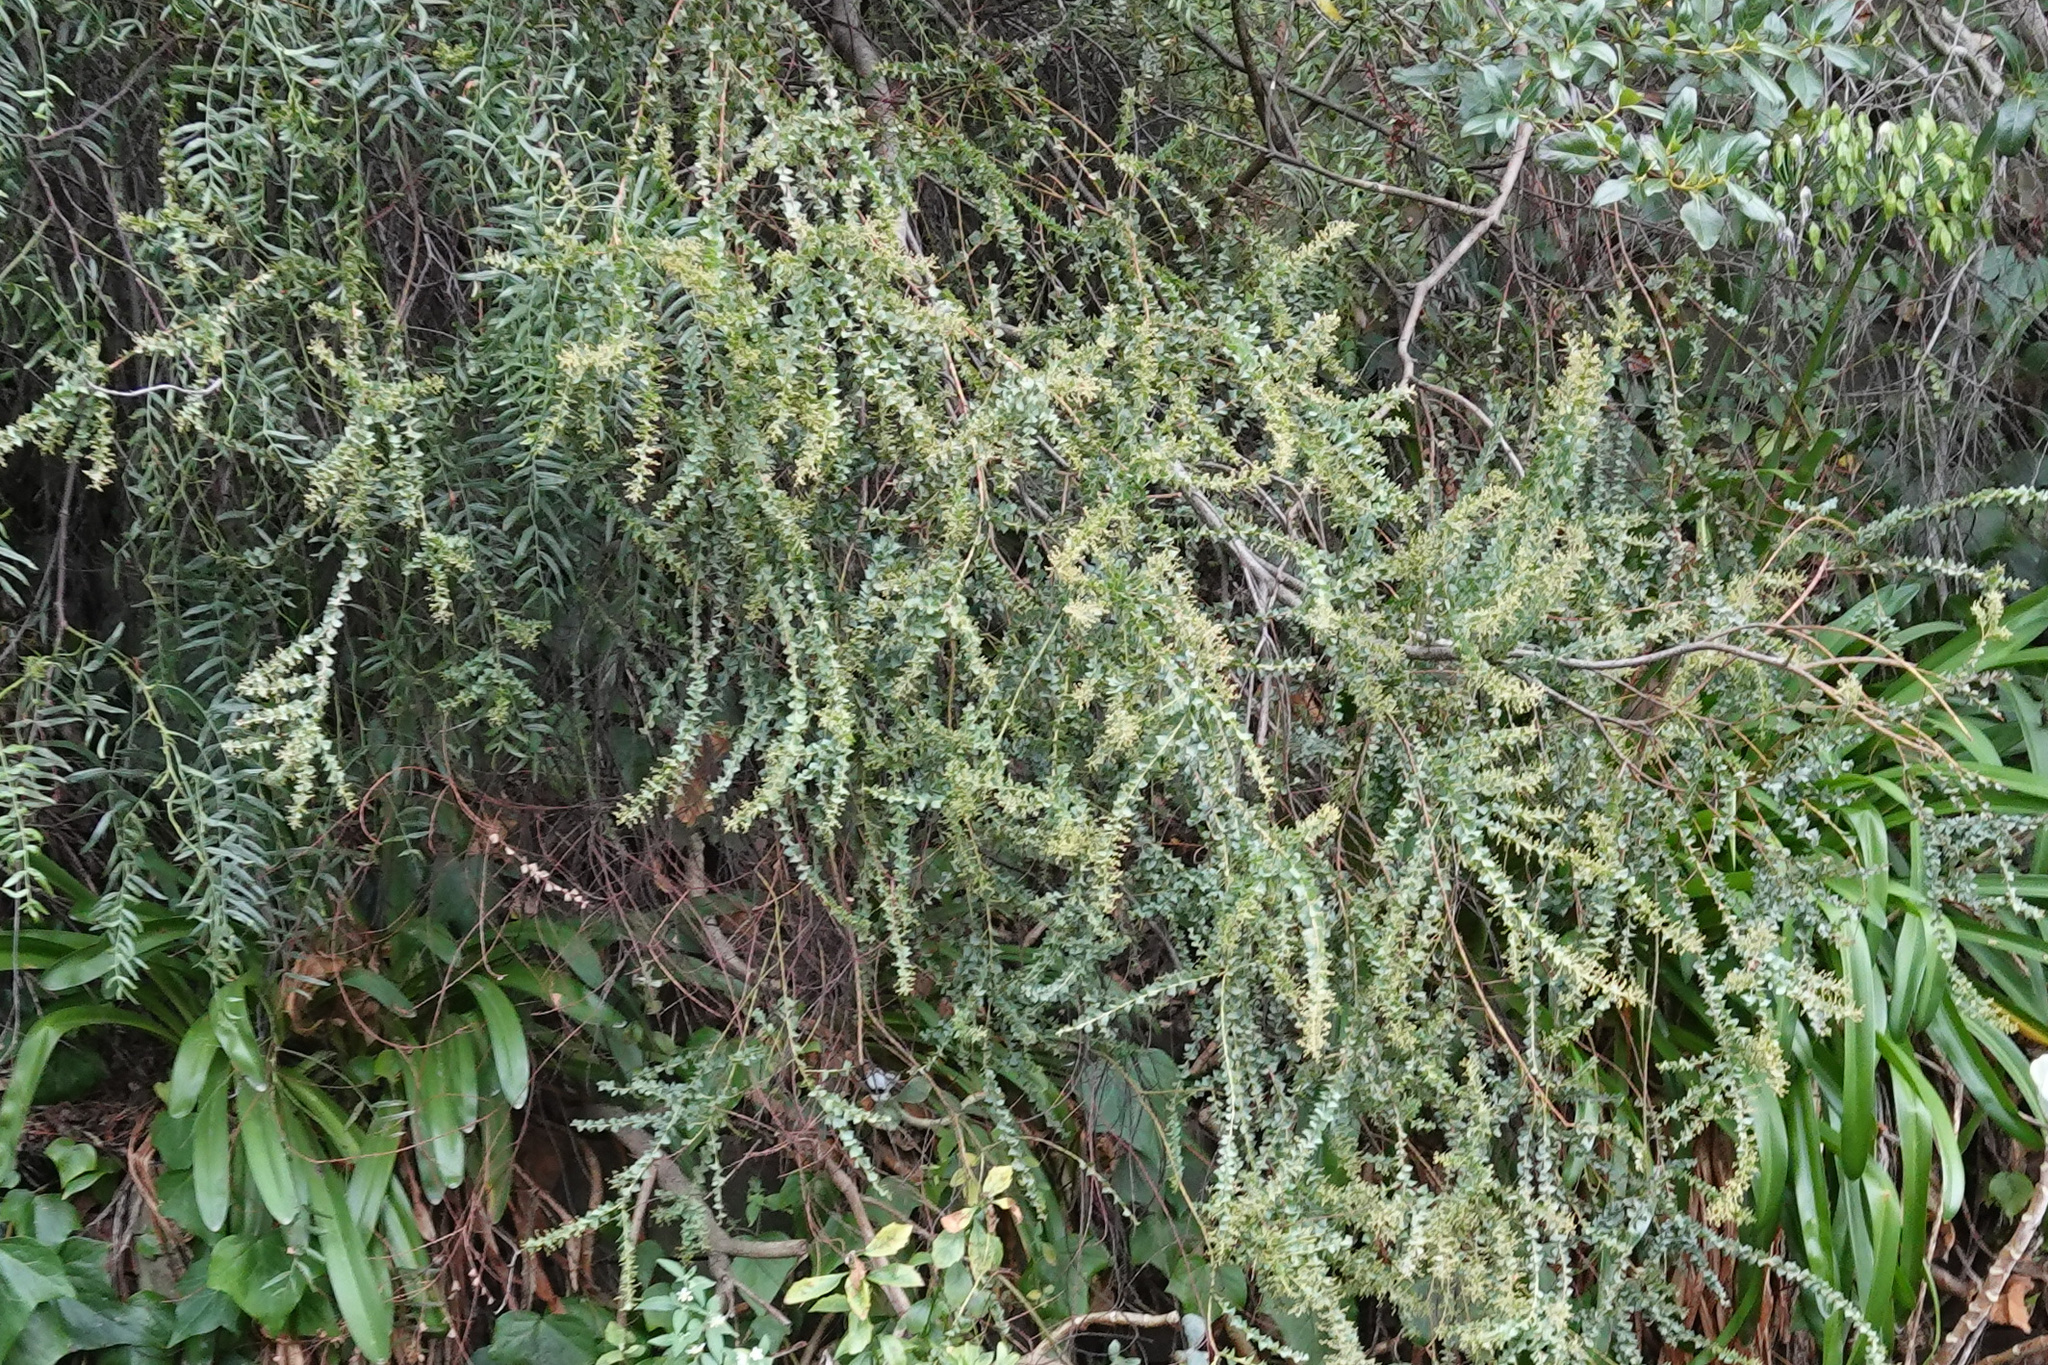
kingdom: Plantae
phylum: Tracheophyta
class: Magnoliopsida
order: Fabales
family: Fabaceae
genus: Acacia
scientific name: Acacia pravissima
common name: Tumut wattle
